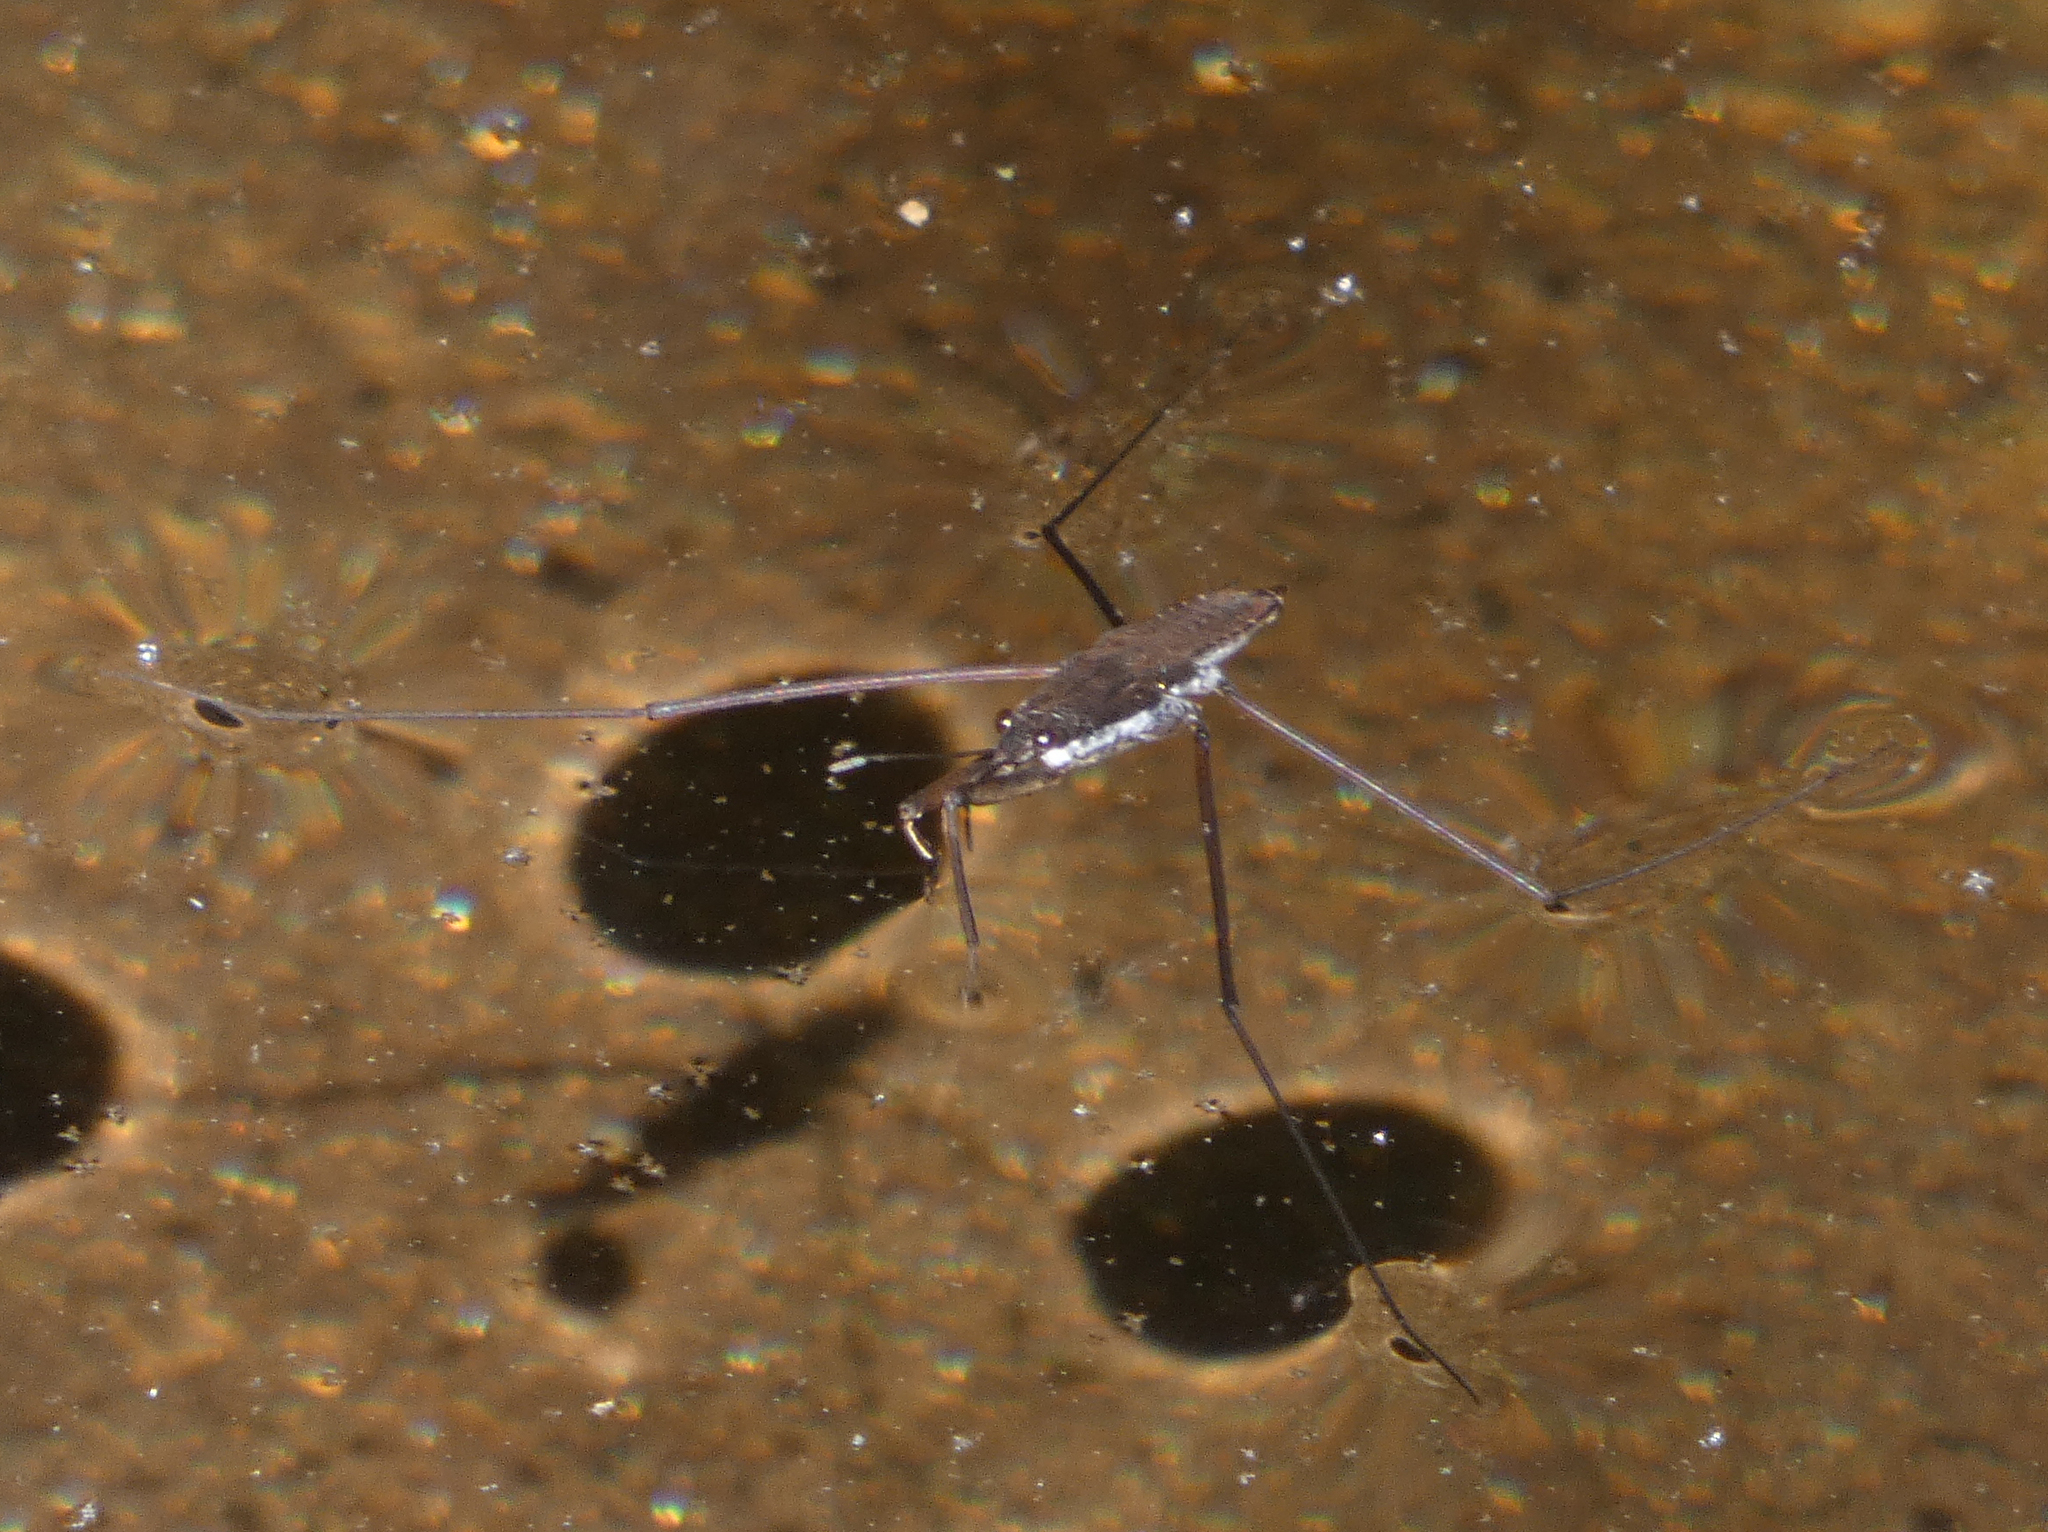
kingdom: Animalia
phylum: Arthropoda
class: Insecta
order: Hemiptera
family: Gerridae
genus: Aquarius
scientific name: Aquarius
